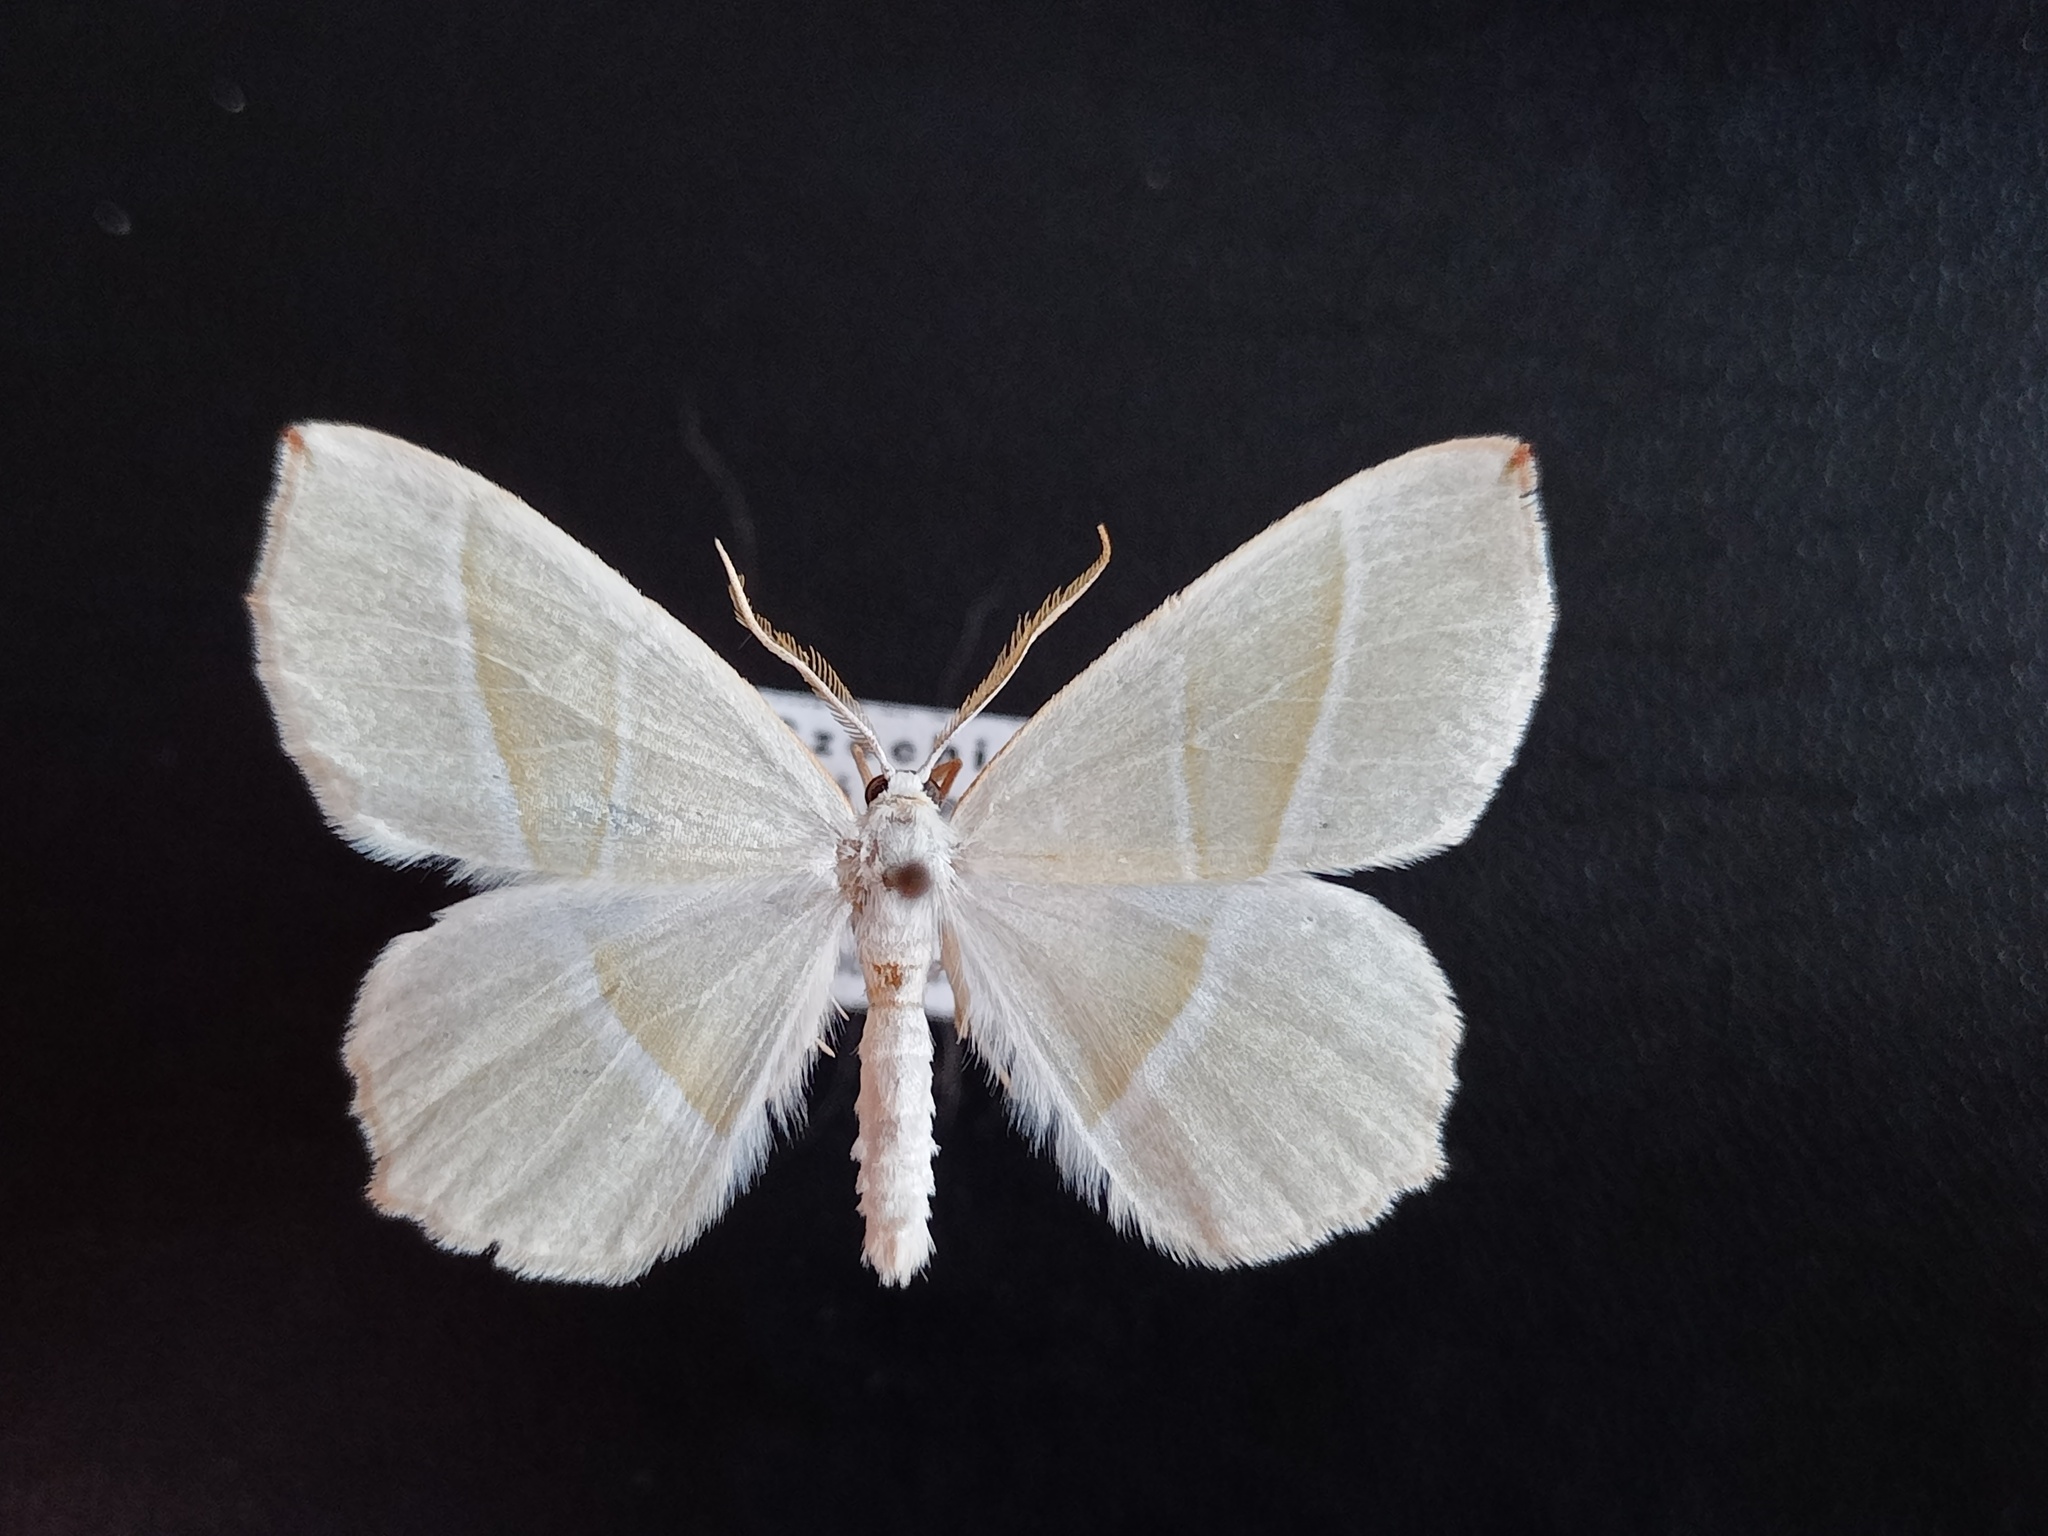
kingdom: Animalia
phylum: Arthropoda
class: Insecta
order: Lepidoptera
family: Geometridae
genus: Campaea
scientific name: Campaea margaritaria
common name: Light emerald
